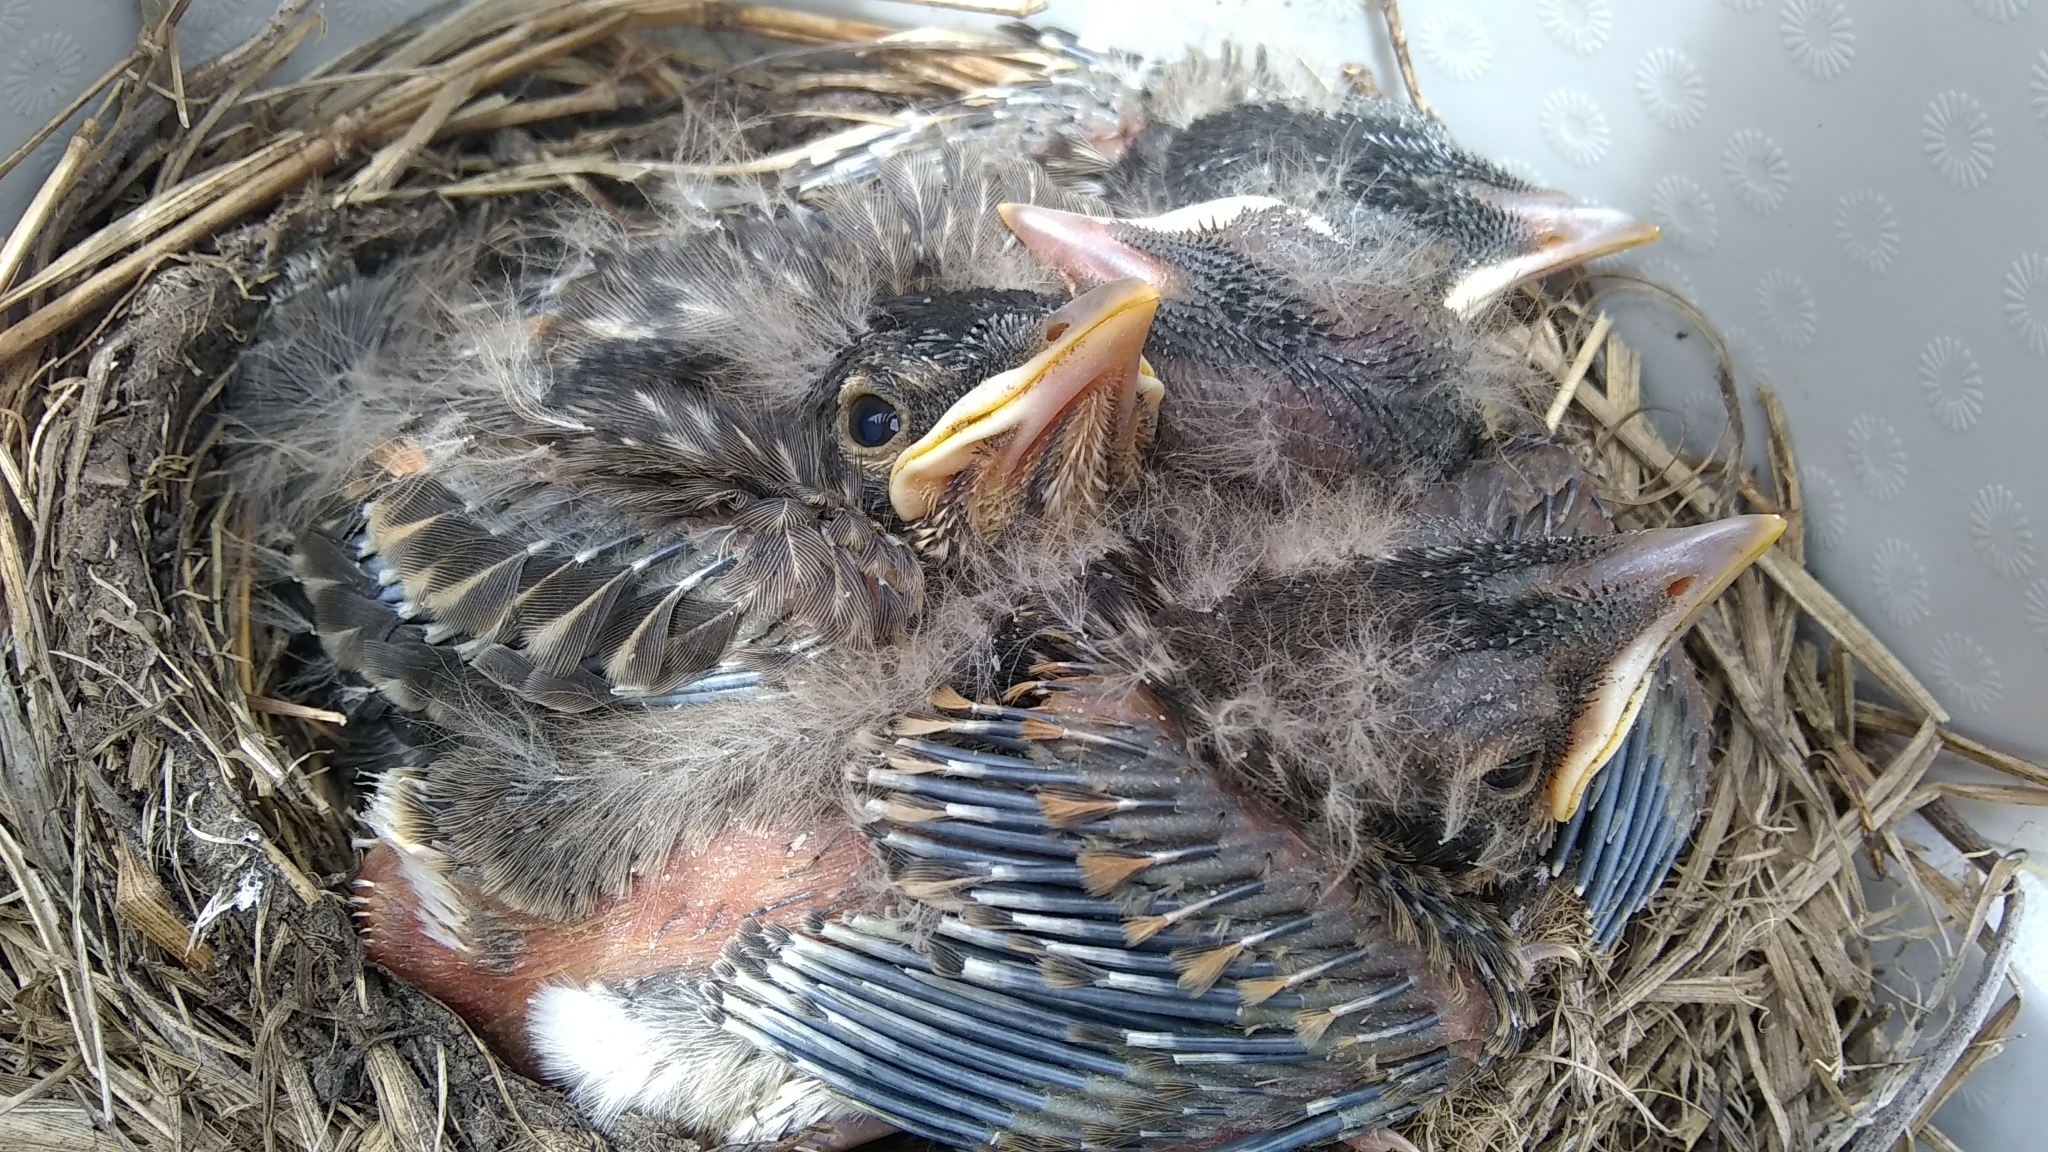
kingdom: Animalia
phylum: Chordata
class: Aves
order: Passeriformes
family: Turdidae
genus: Turdus
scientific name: Turdus migratorius
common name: American robin
